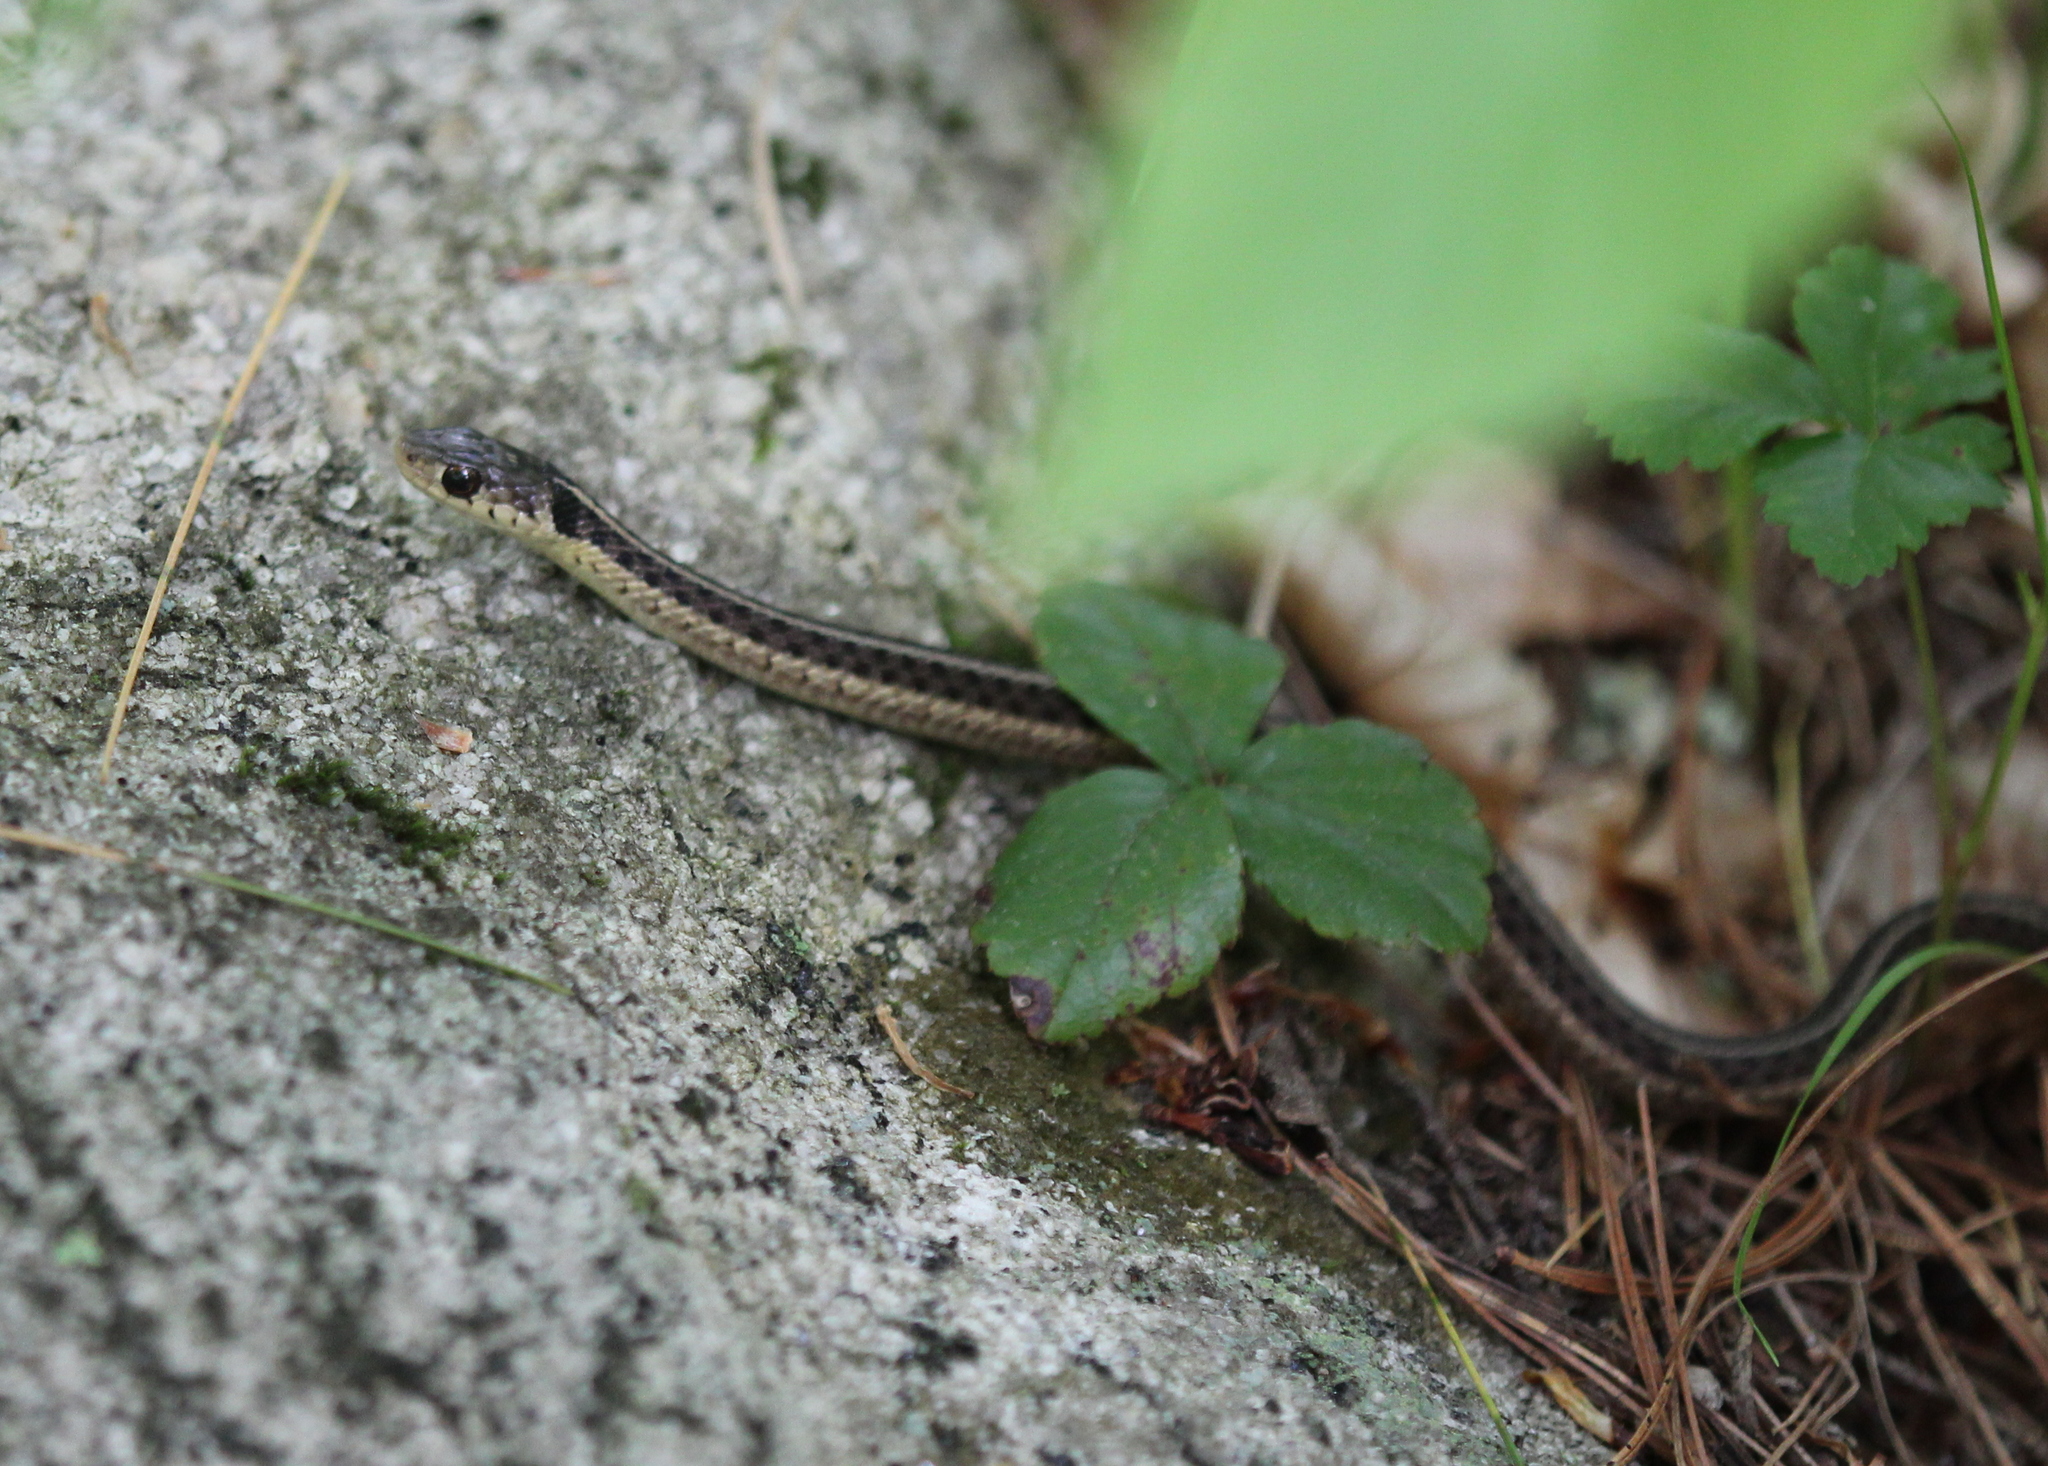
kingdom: Animalia
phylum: Chordata
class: Squamata
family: Colubridae
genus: Thamnophis
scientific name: Thamnophis sirtalis
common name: Common garter snake
